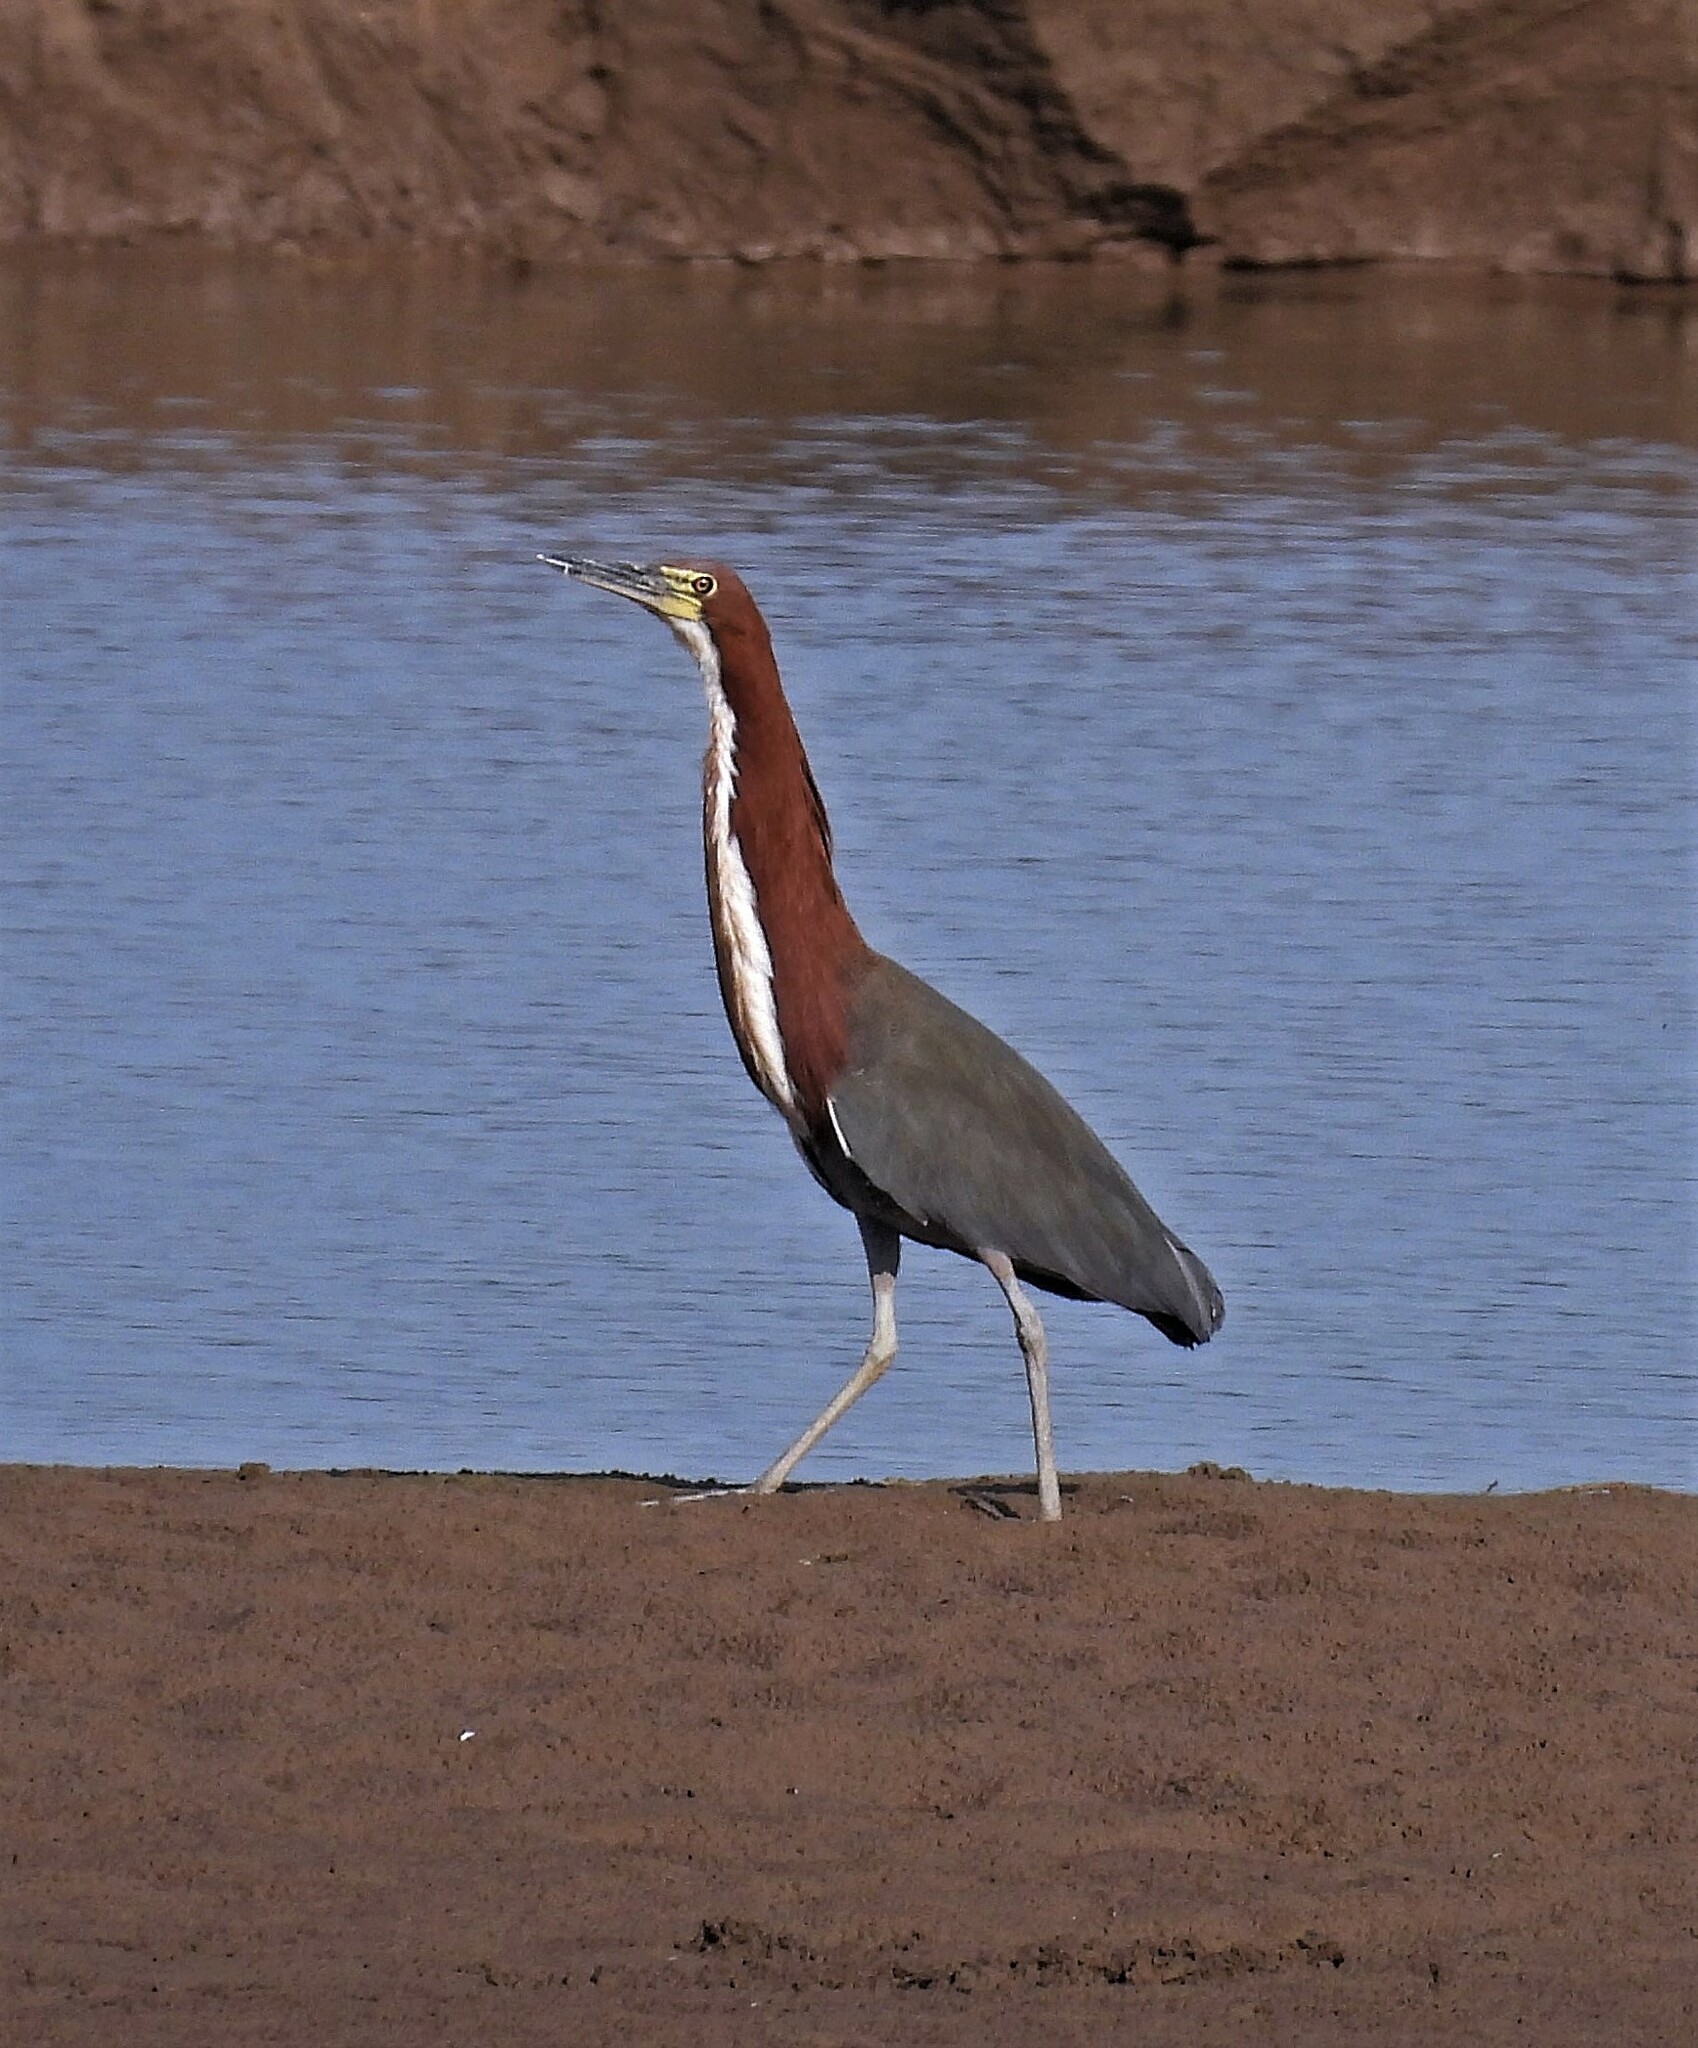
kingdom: Animalia
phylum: Chordata
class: Aves
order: Pelecaniformes
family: Ardeidae
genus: Tigrisoma
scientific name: Tigrisoma lineatum
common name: Rufescent tiger-heron
